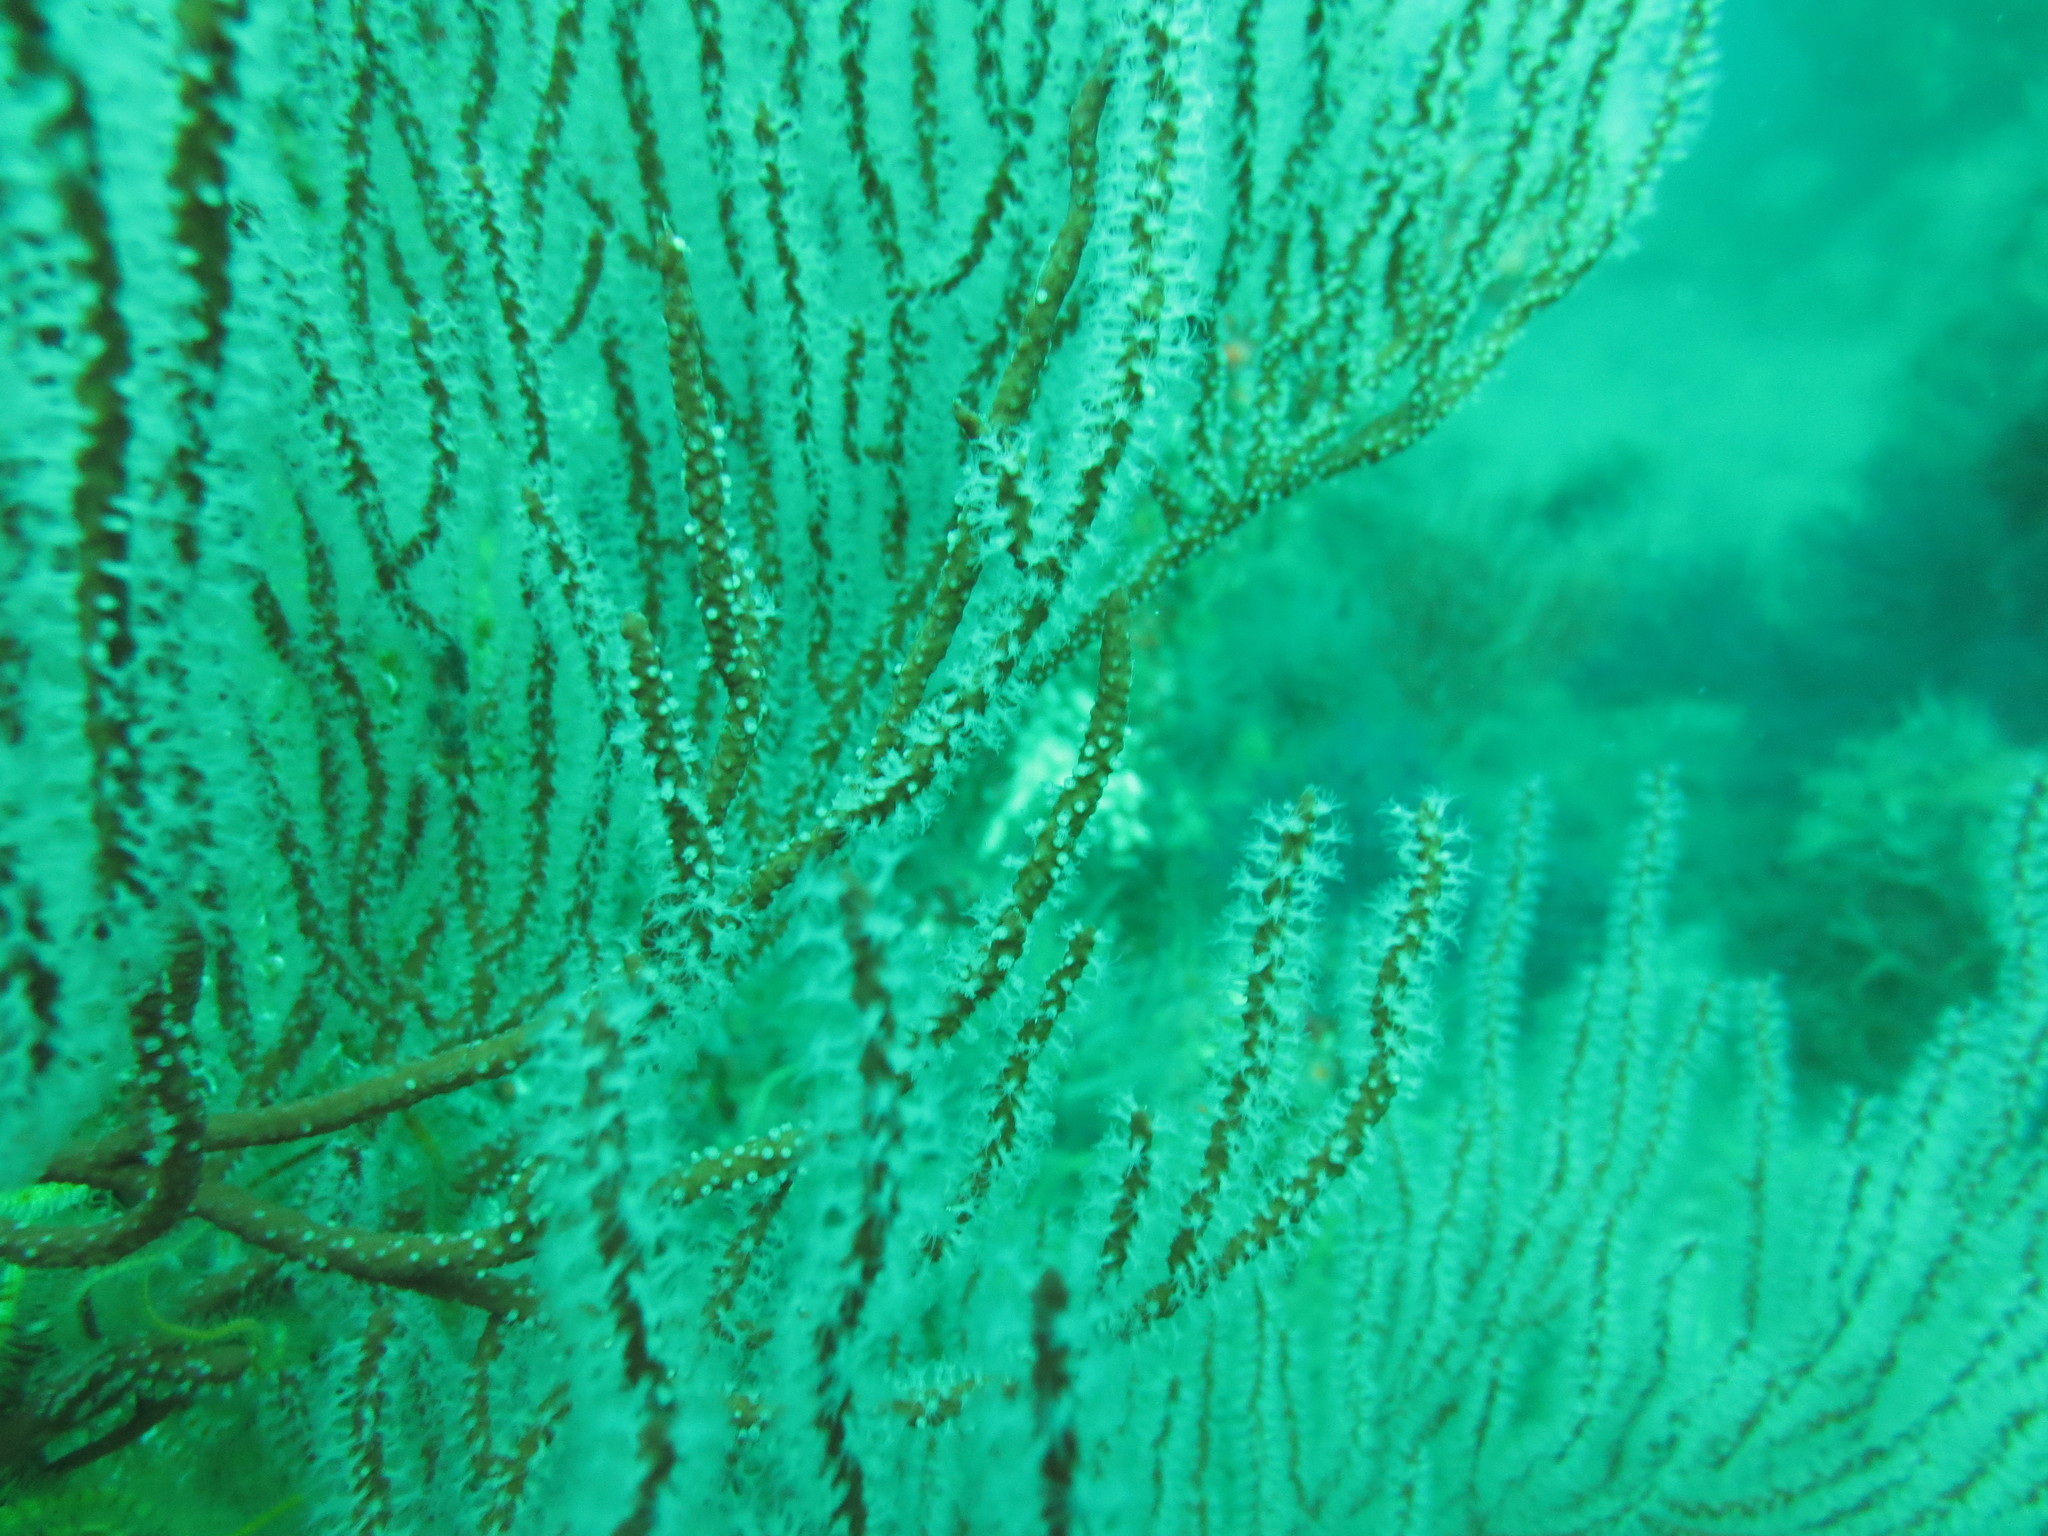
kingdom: Animalia
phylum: Cnidaria
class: Anthozoa
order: Malacalcyonacea
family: Gorgoniidae
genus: Leptogorgia
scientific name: Leptogorgia chilensis
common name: Carmine sea spray
